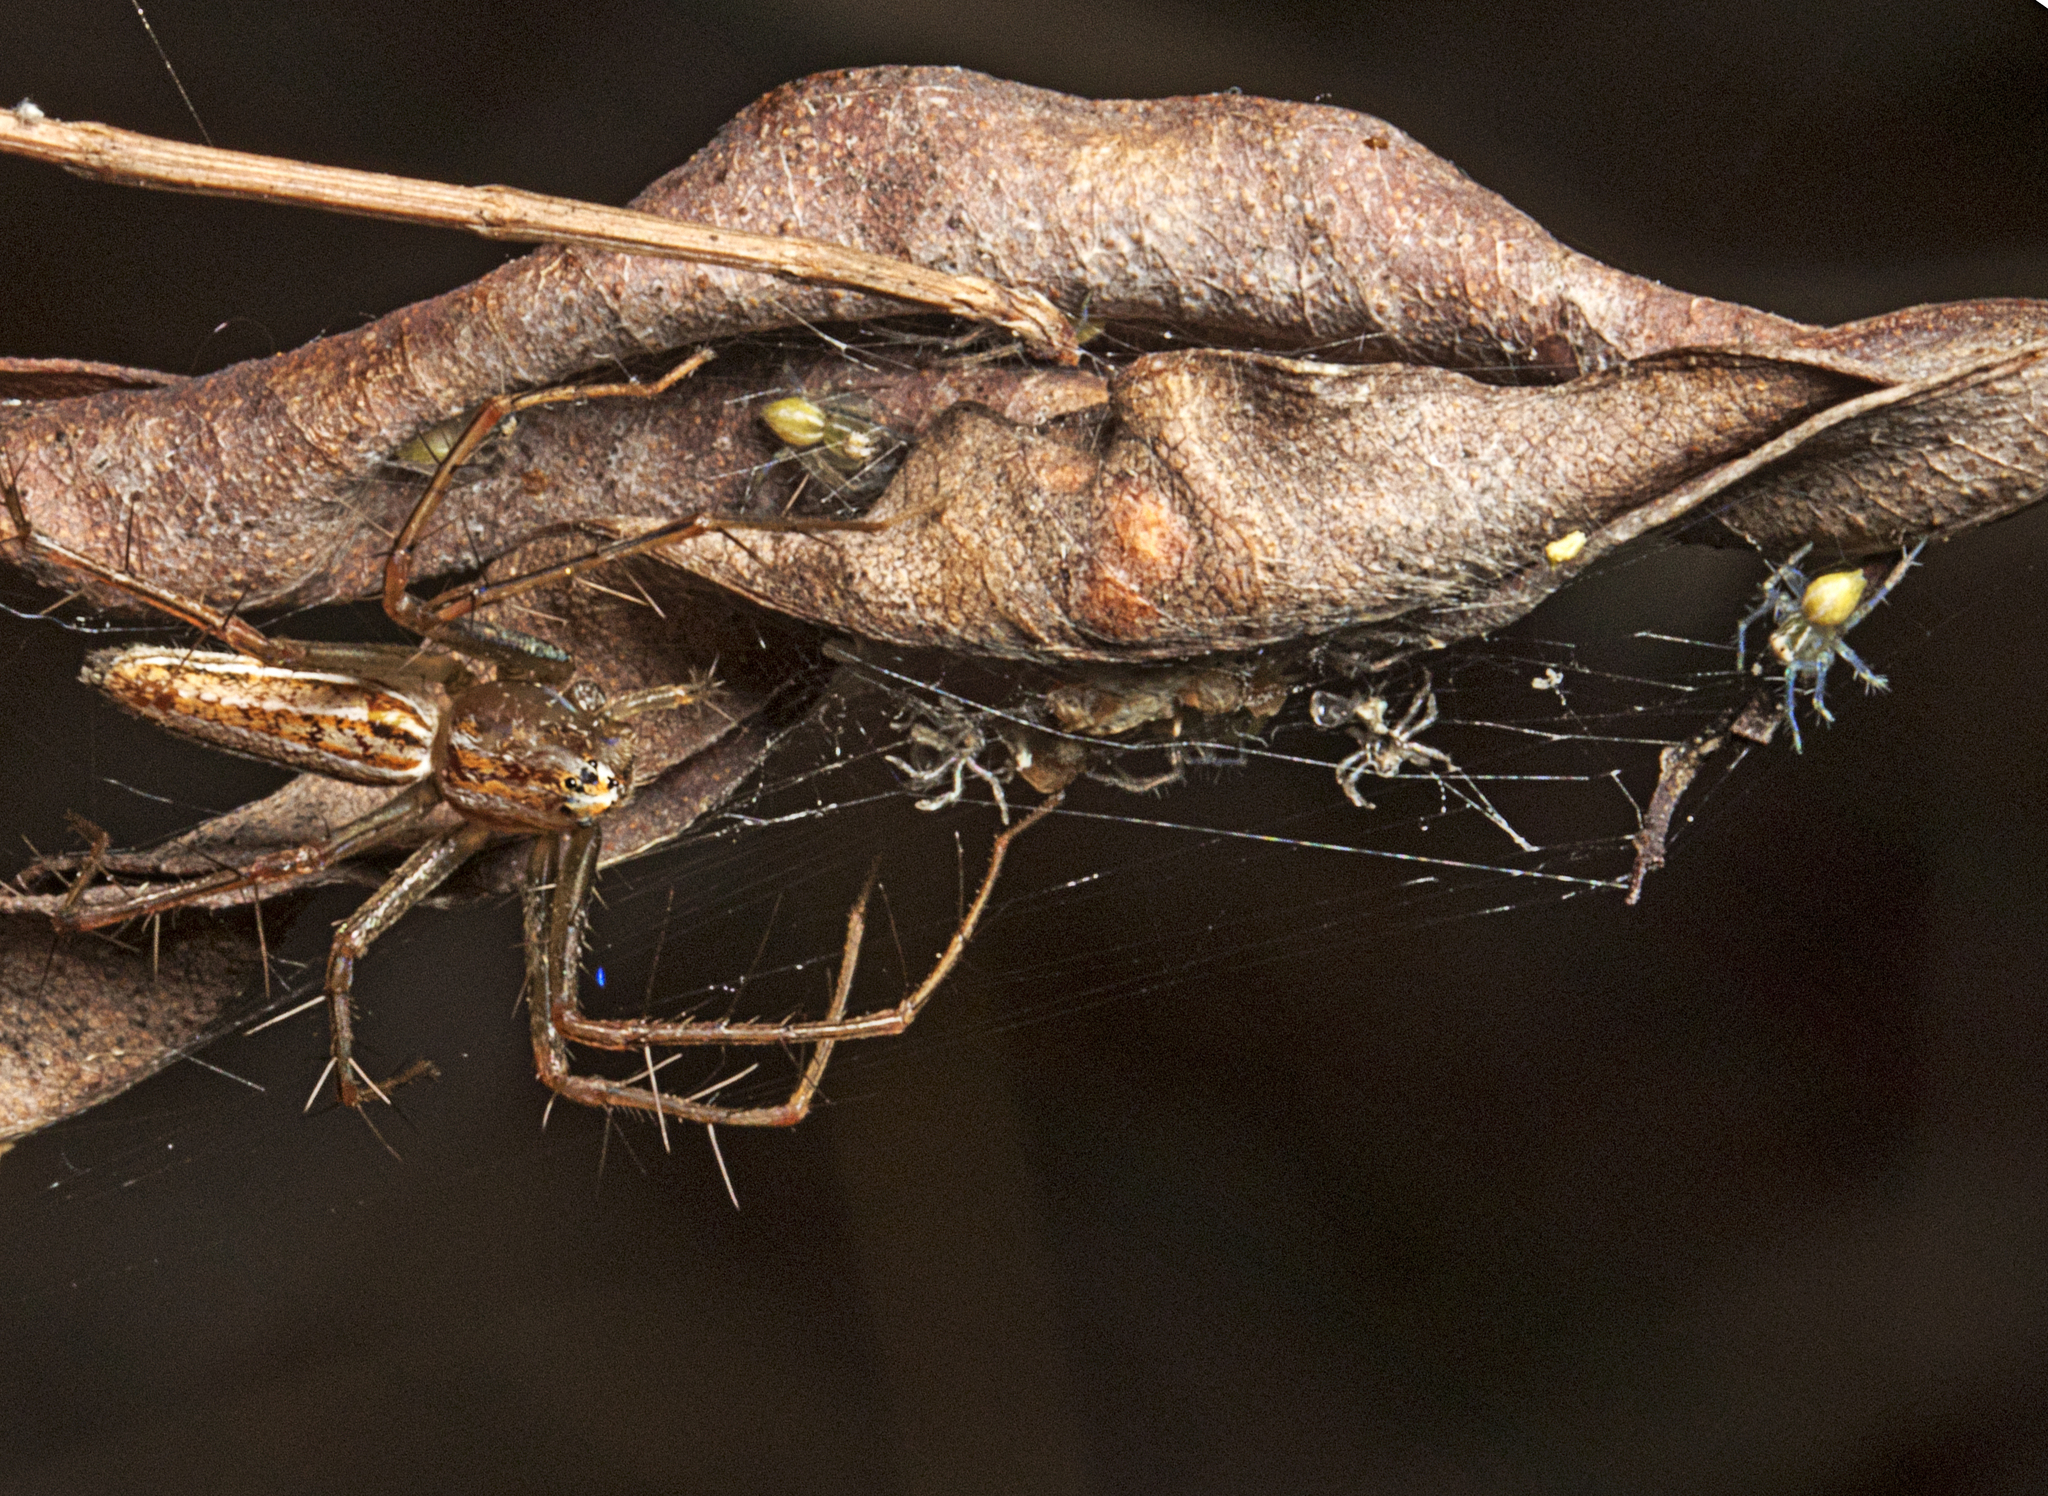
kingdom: Animalia
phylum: Arthropoda
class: Arachnida
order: Araneae
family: Oxyopidae
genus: Oxyopes
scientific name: Oxyopes macilentus
